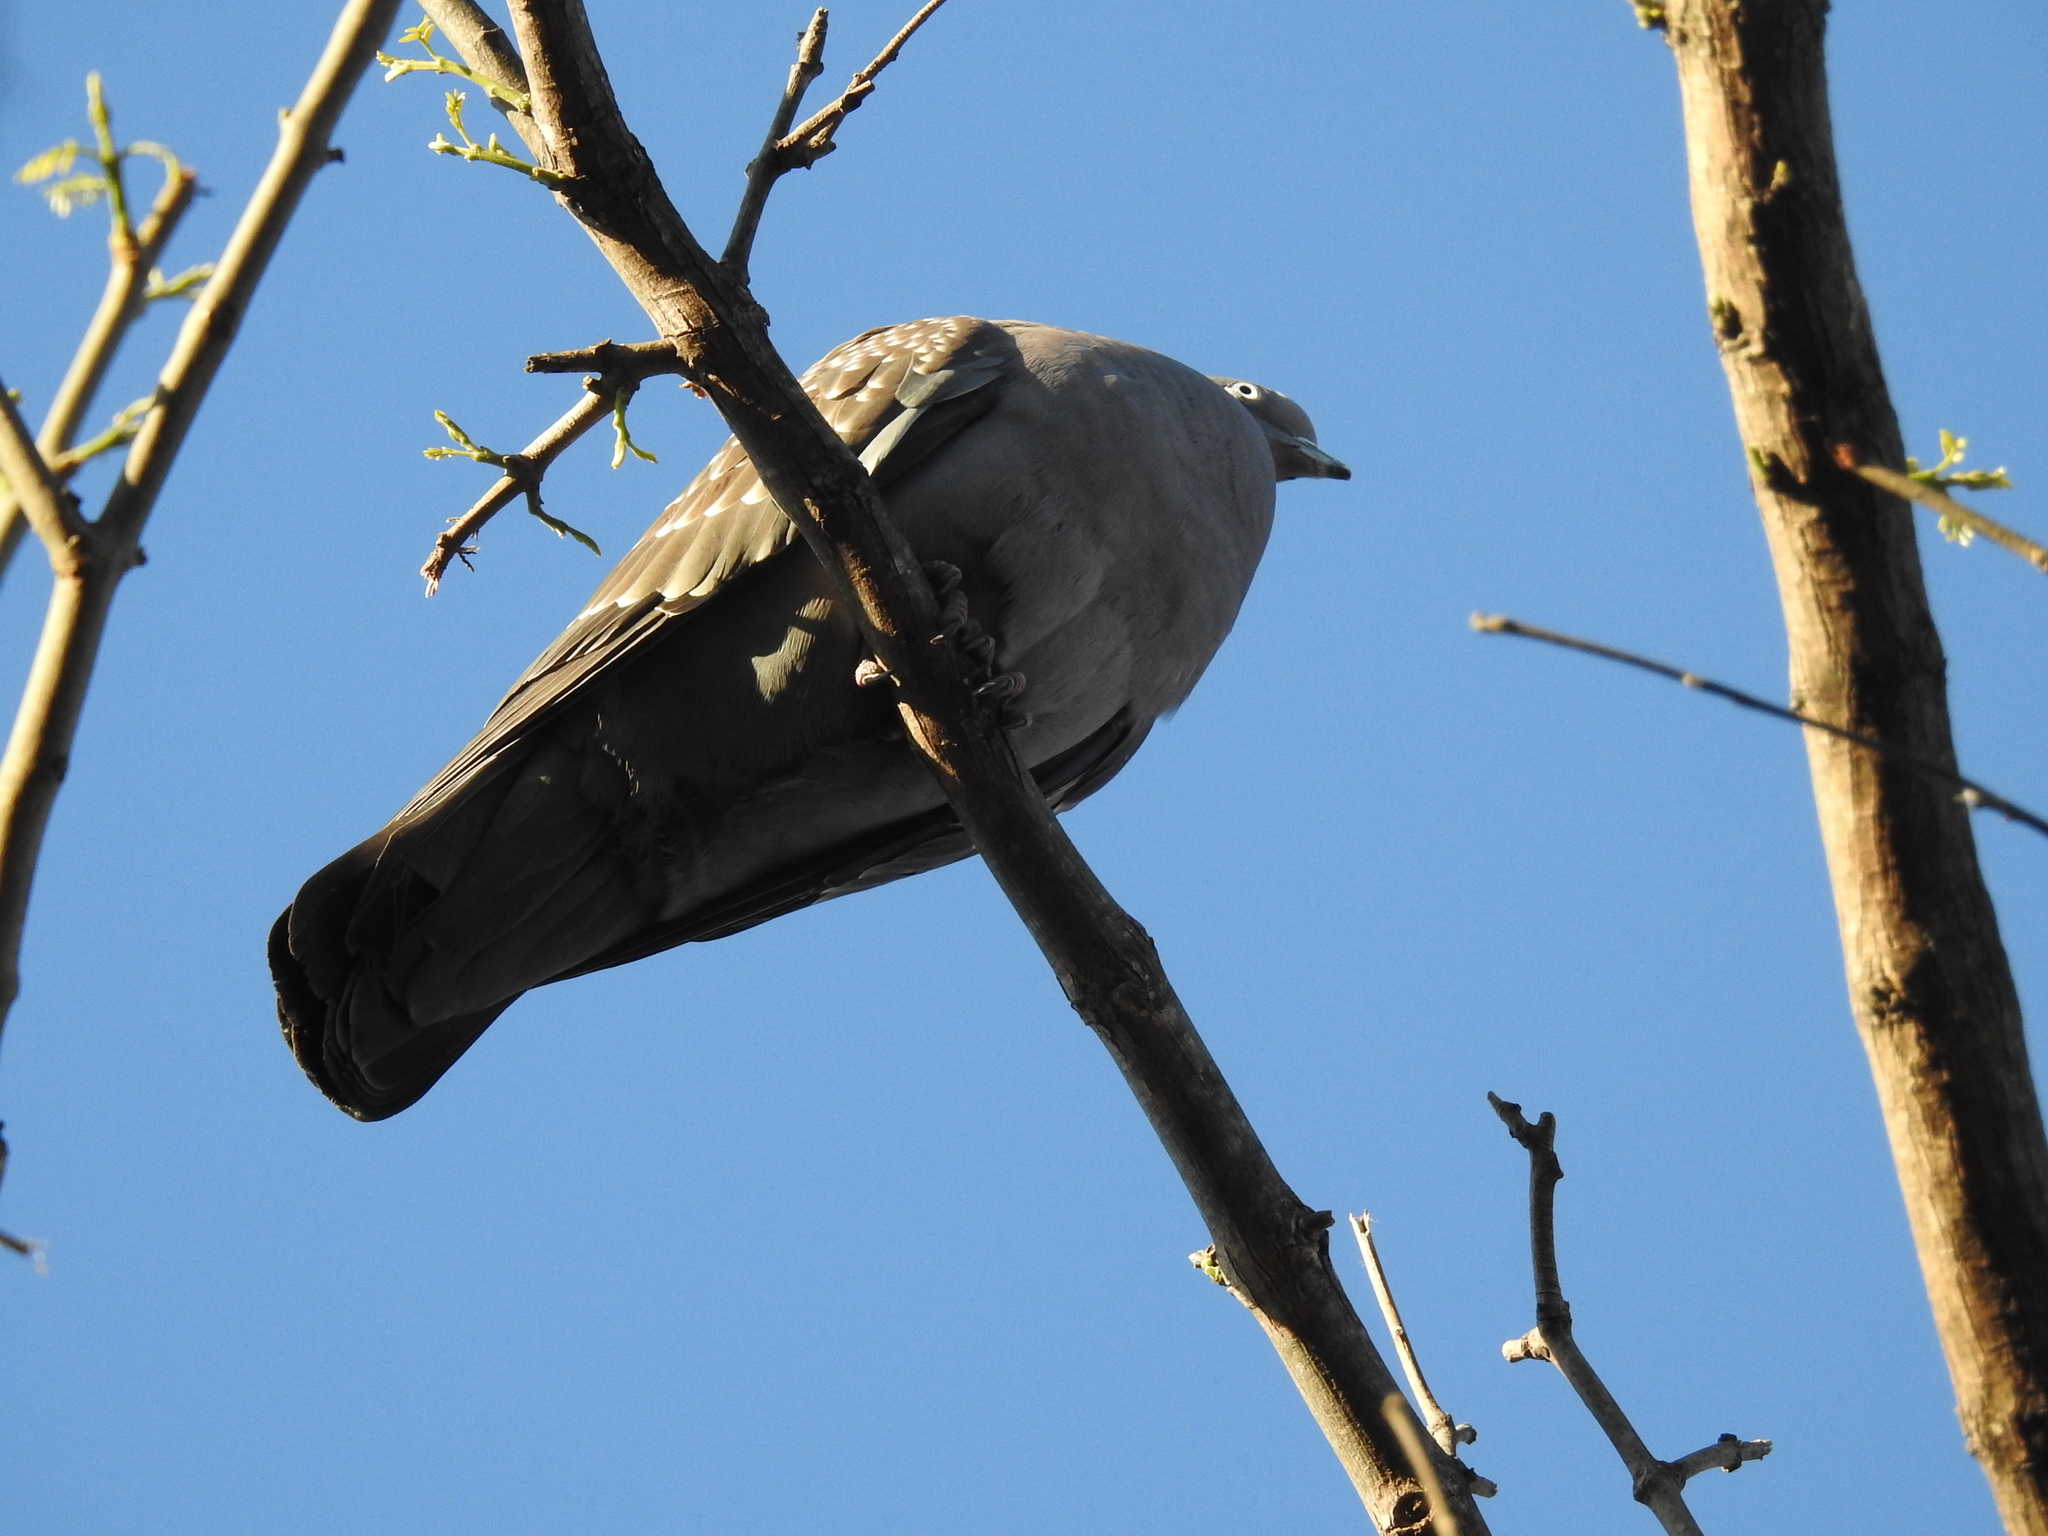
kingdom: Animalia
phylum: Chordata
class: Aves
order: Columbiformes
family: Columbidae
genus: Patagioenas
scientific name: Patagioenas maculosa
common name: Spot-winged pigeon
